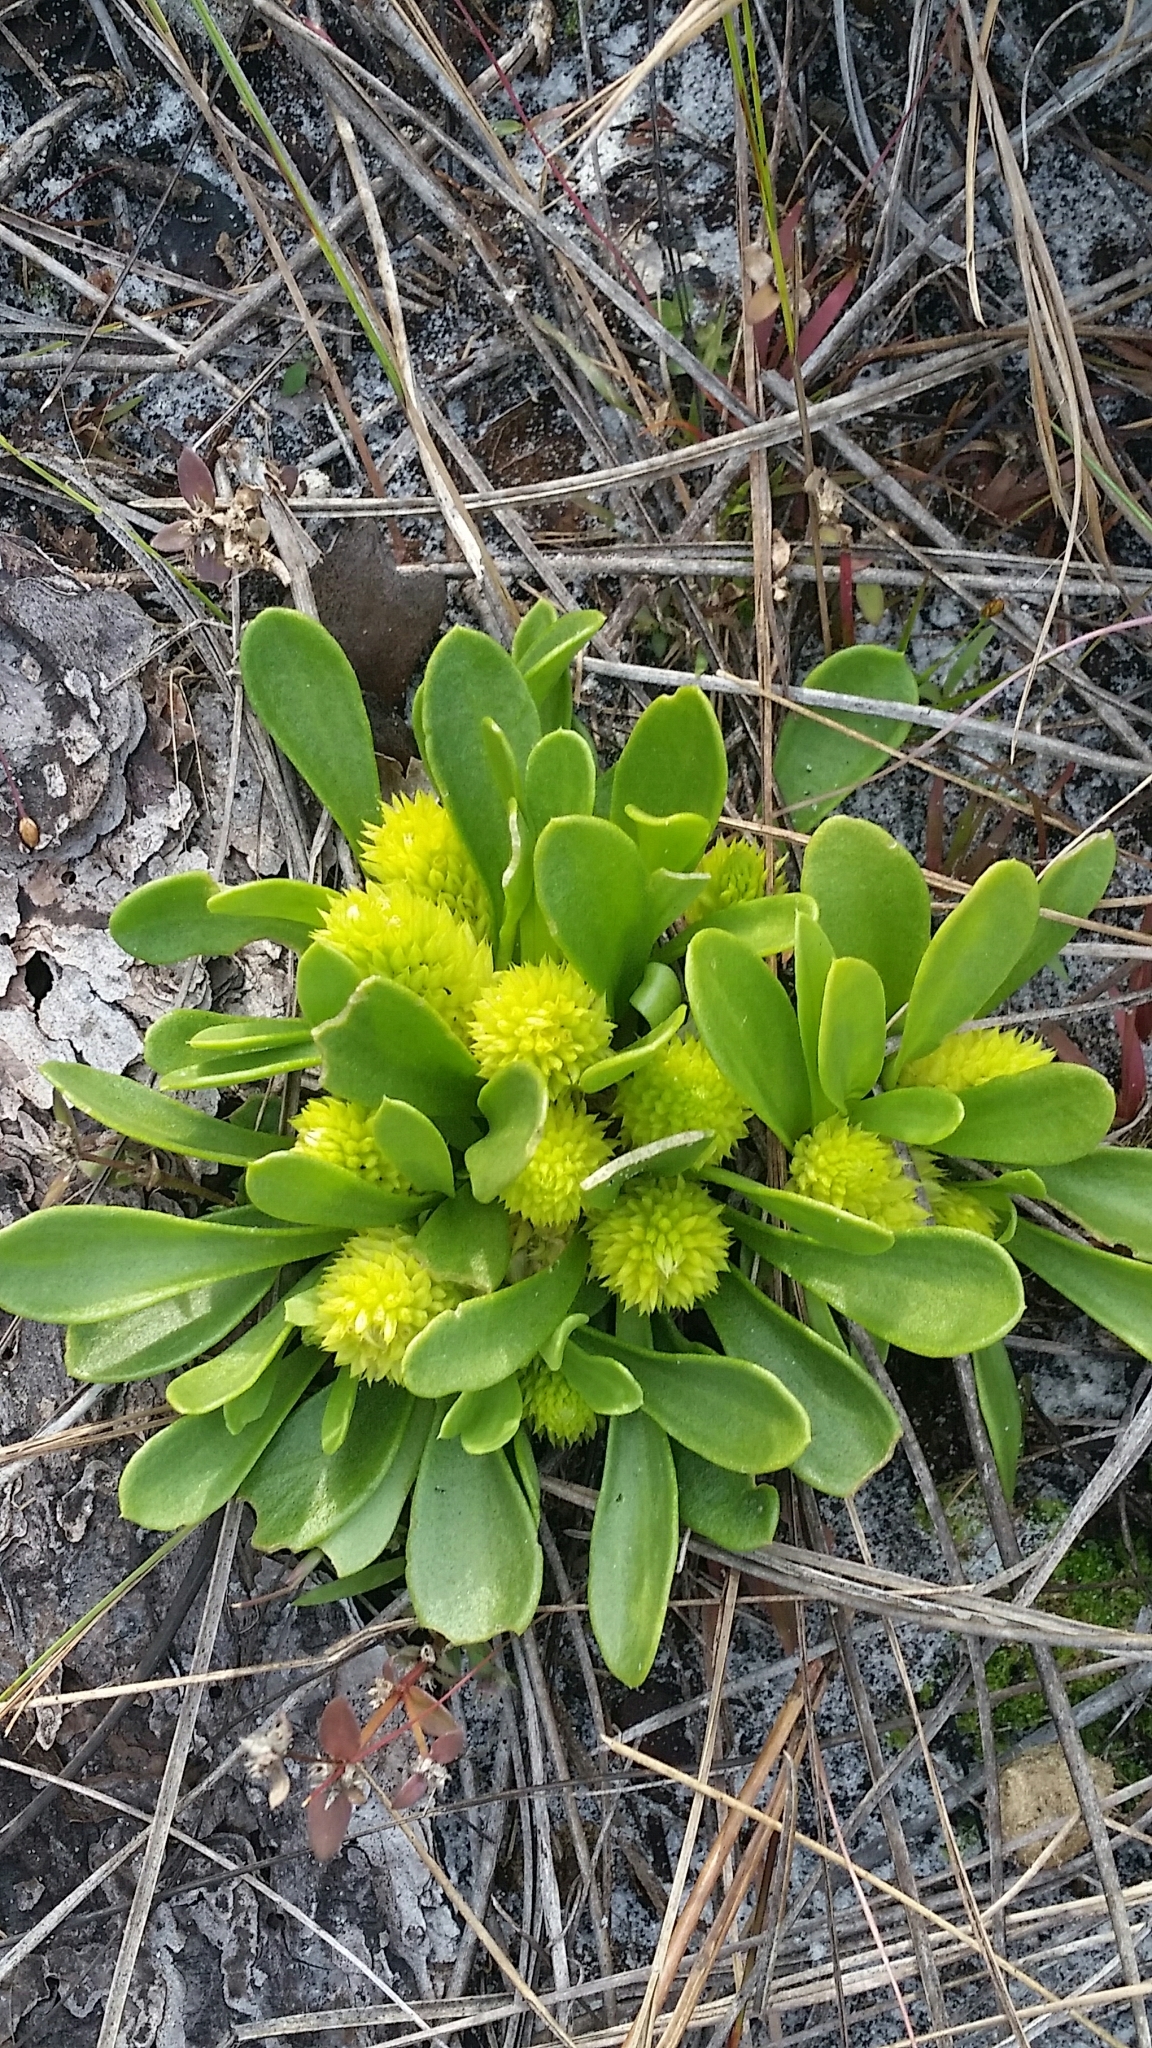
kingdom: Plantae
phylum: Tracheophyta
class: Magnoliopsida
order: Fabales
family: Polygalaceae
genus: Polygala
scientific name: Polygala nana
